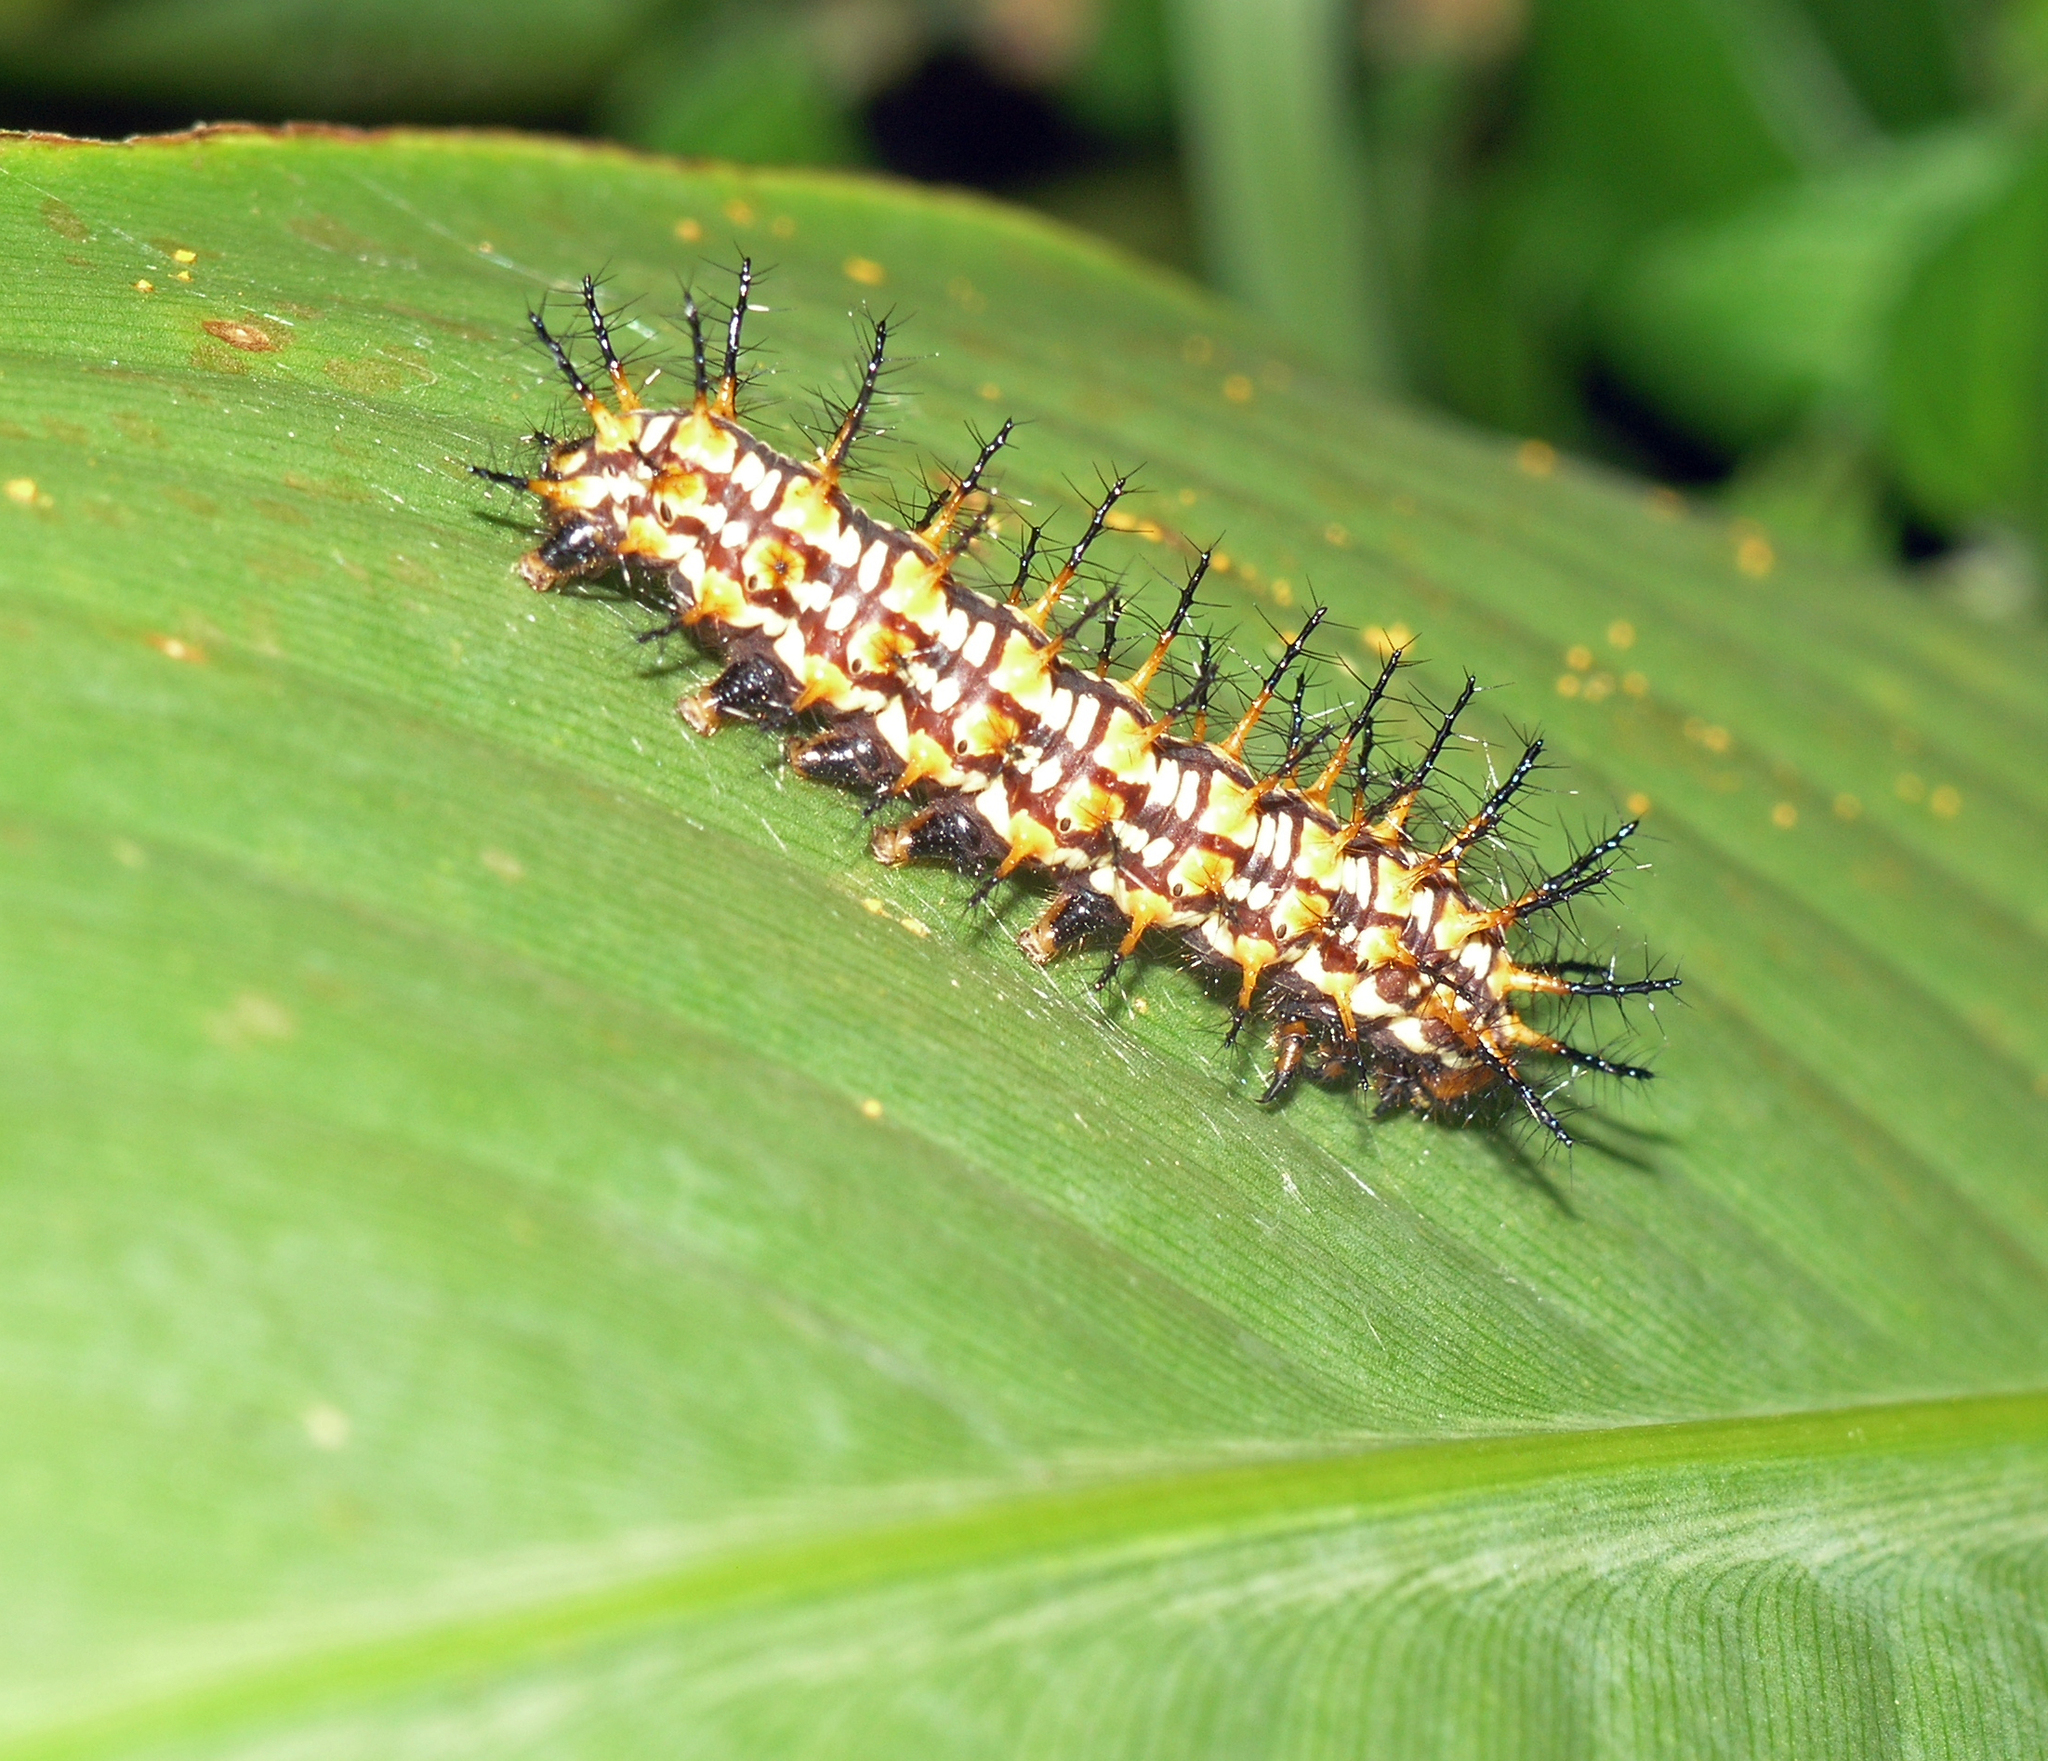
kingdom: Animalia
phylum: Arthropoda
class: Insecta
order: Lepidoptera
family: Nymphalidae
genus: Acraea
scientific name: Acraea Telchinia issoria
